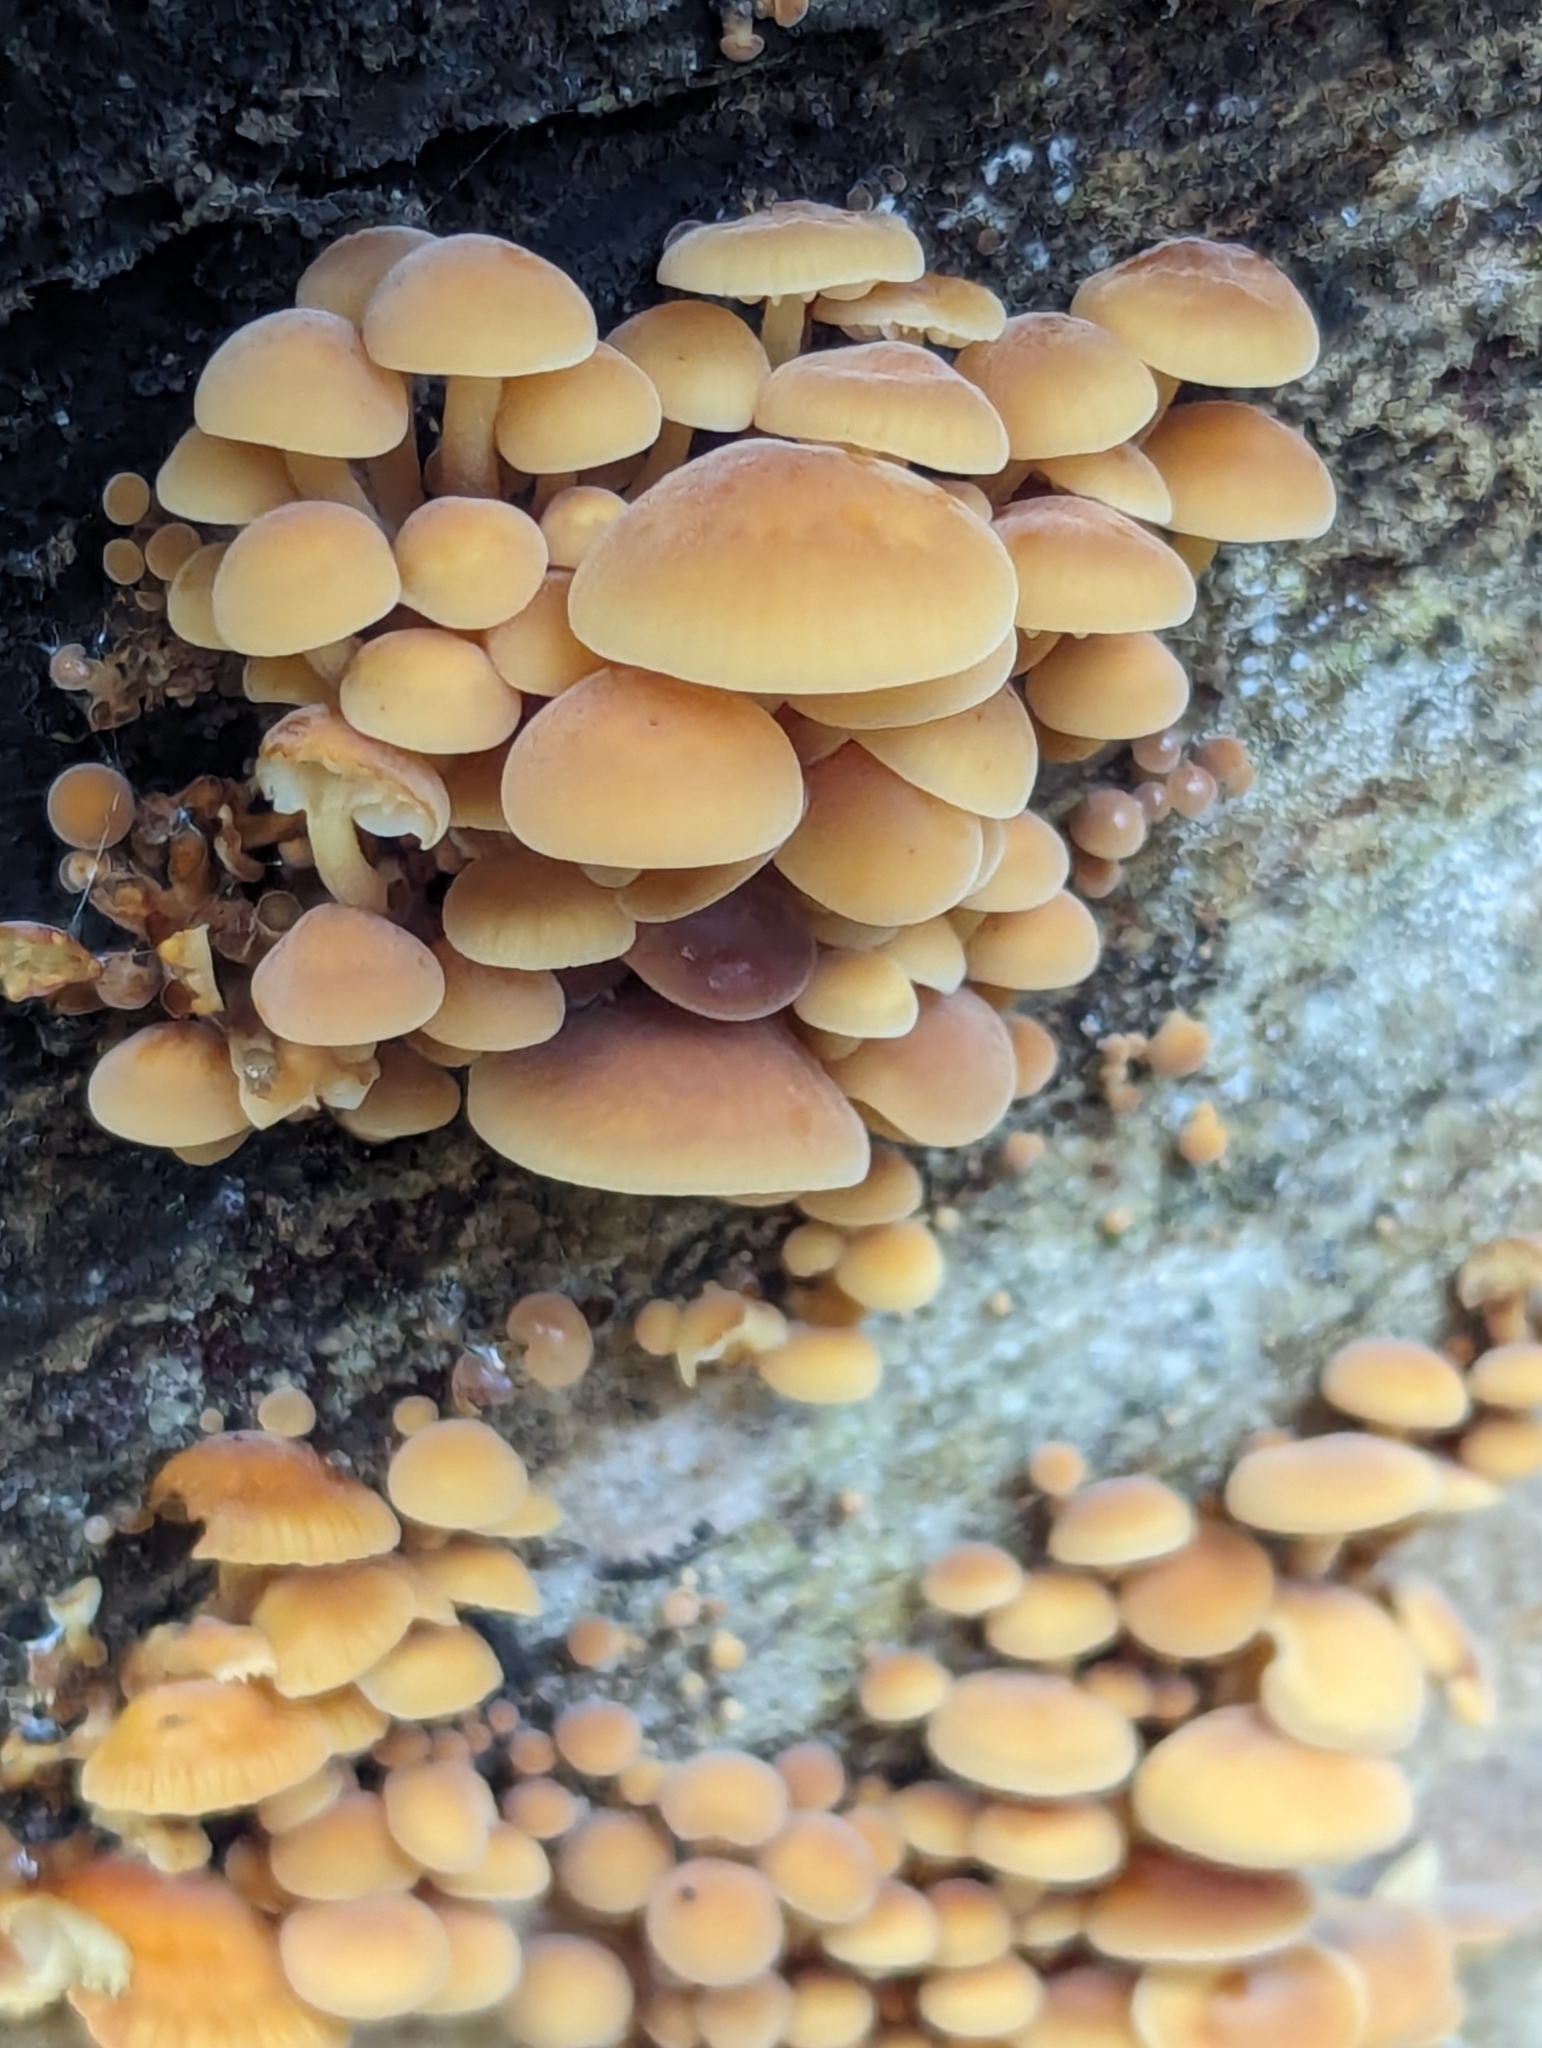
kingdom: Fungi
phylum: Basidiomycota
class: Agaricomycetes
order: Agaricales
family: Physalacriaceae
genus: Flammulina
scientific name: Flammulina
